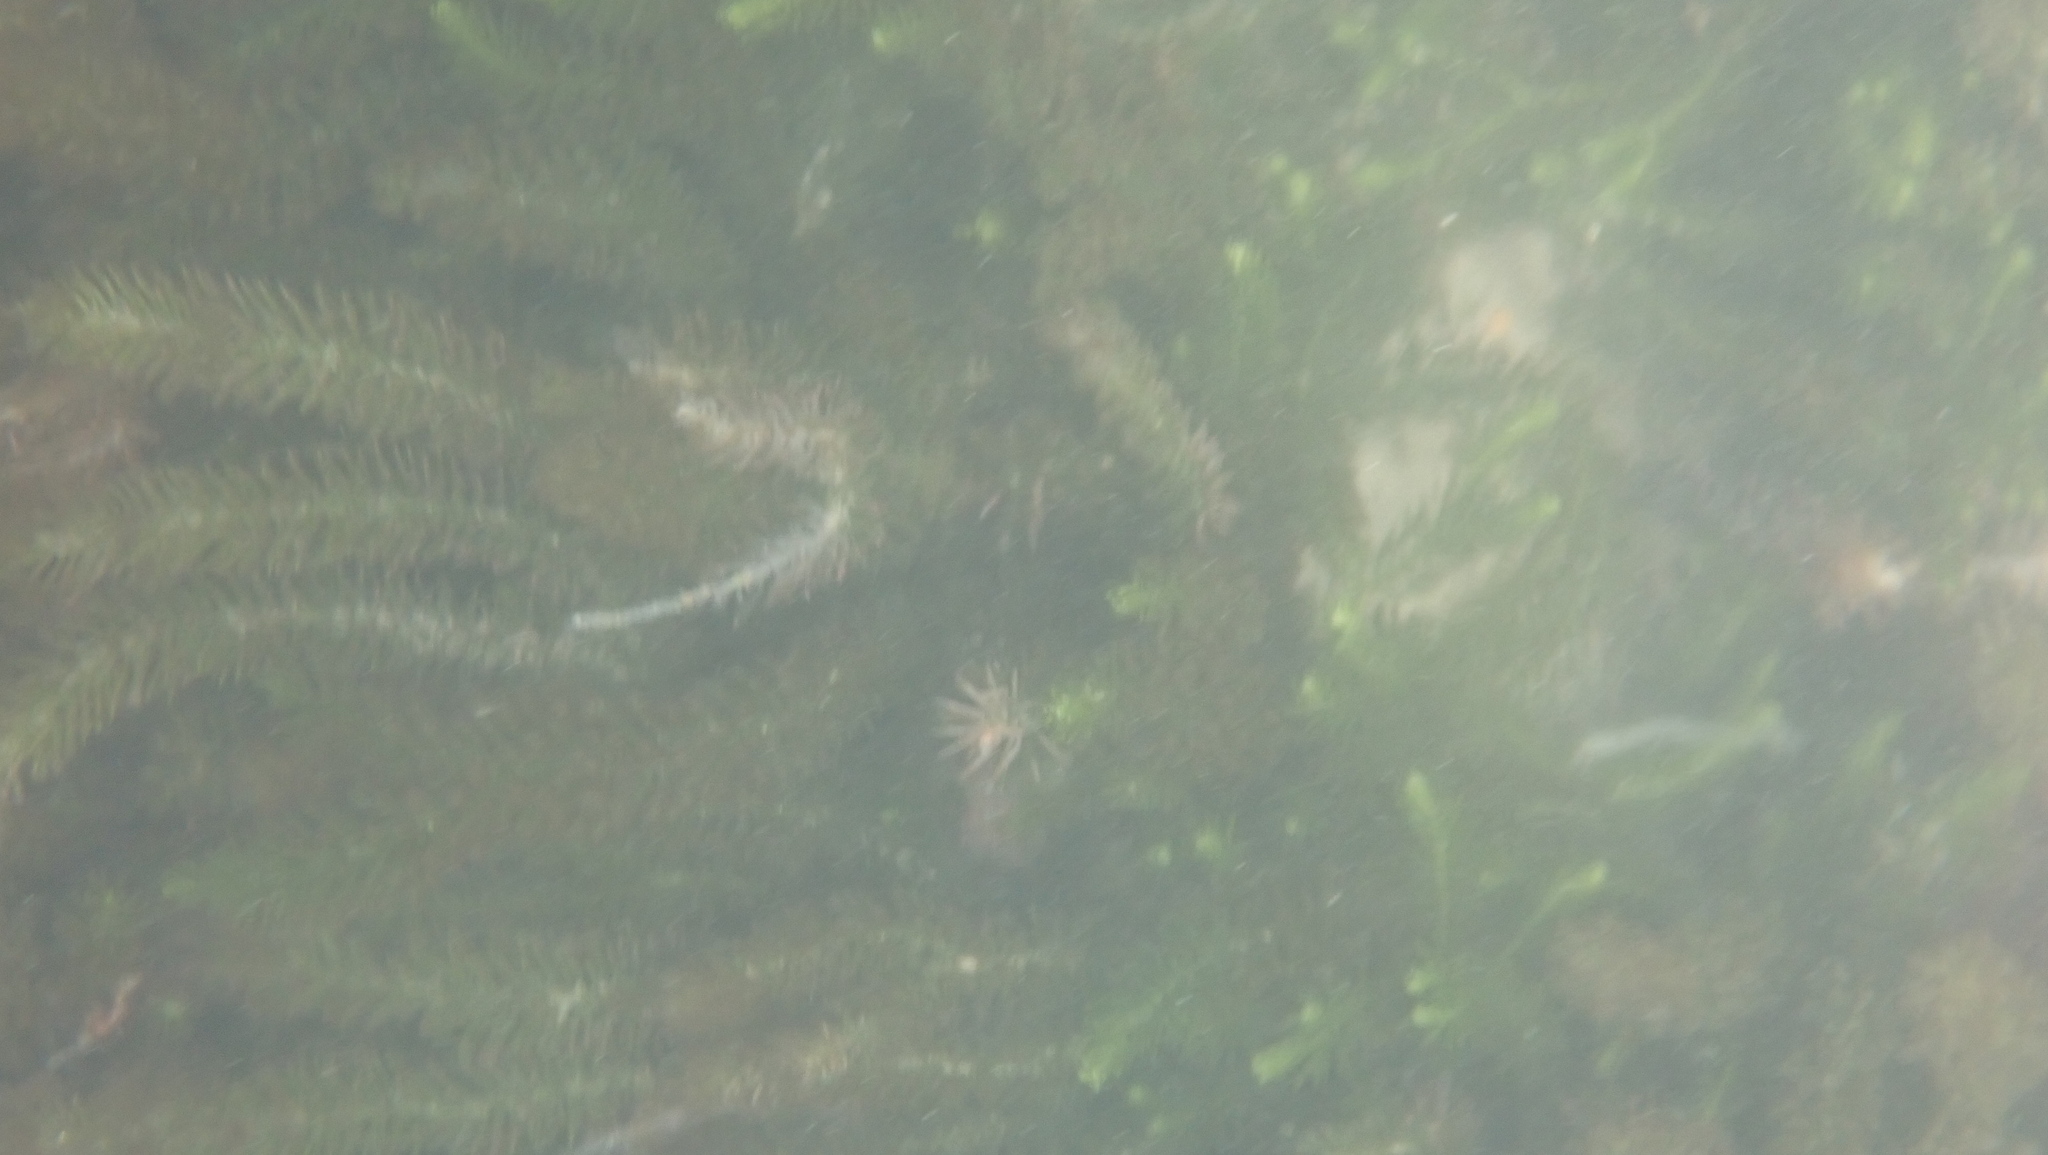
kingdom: Plantae
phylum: Chlorophyta
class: Ulvophyceae
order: Bryopsidales
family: Caulerpaceae
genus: Caulerpa
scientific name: Caulerpa brownii
